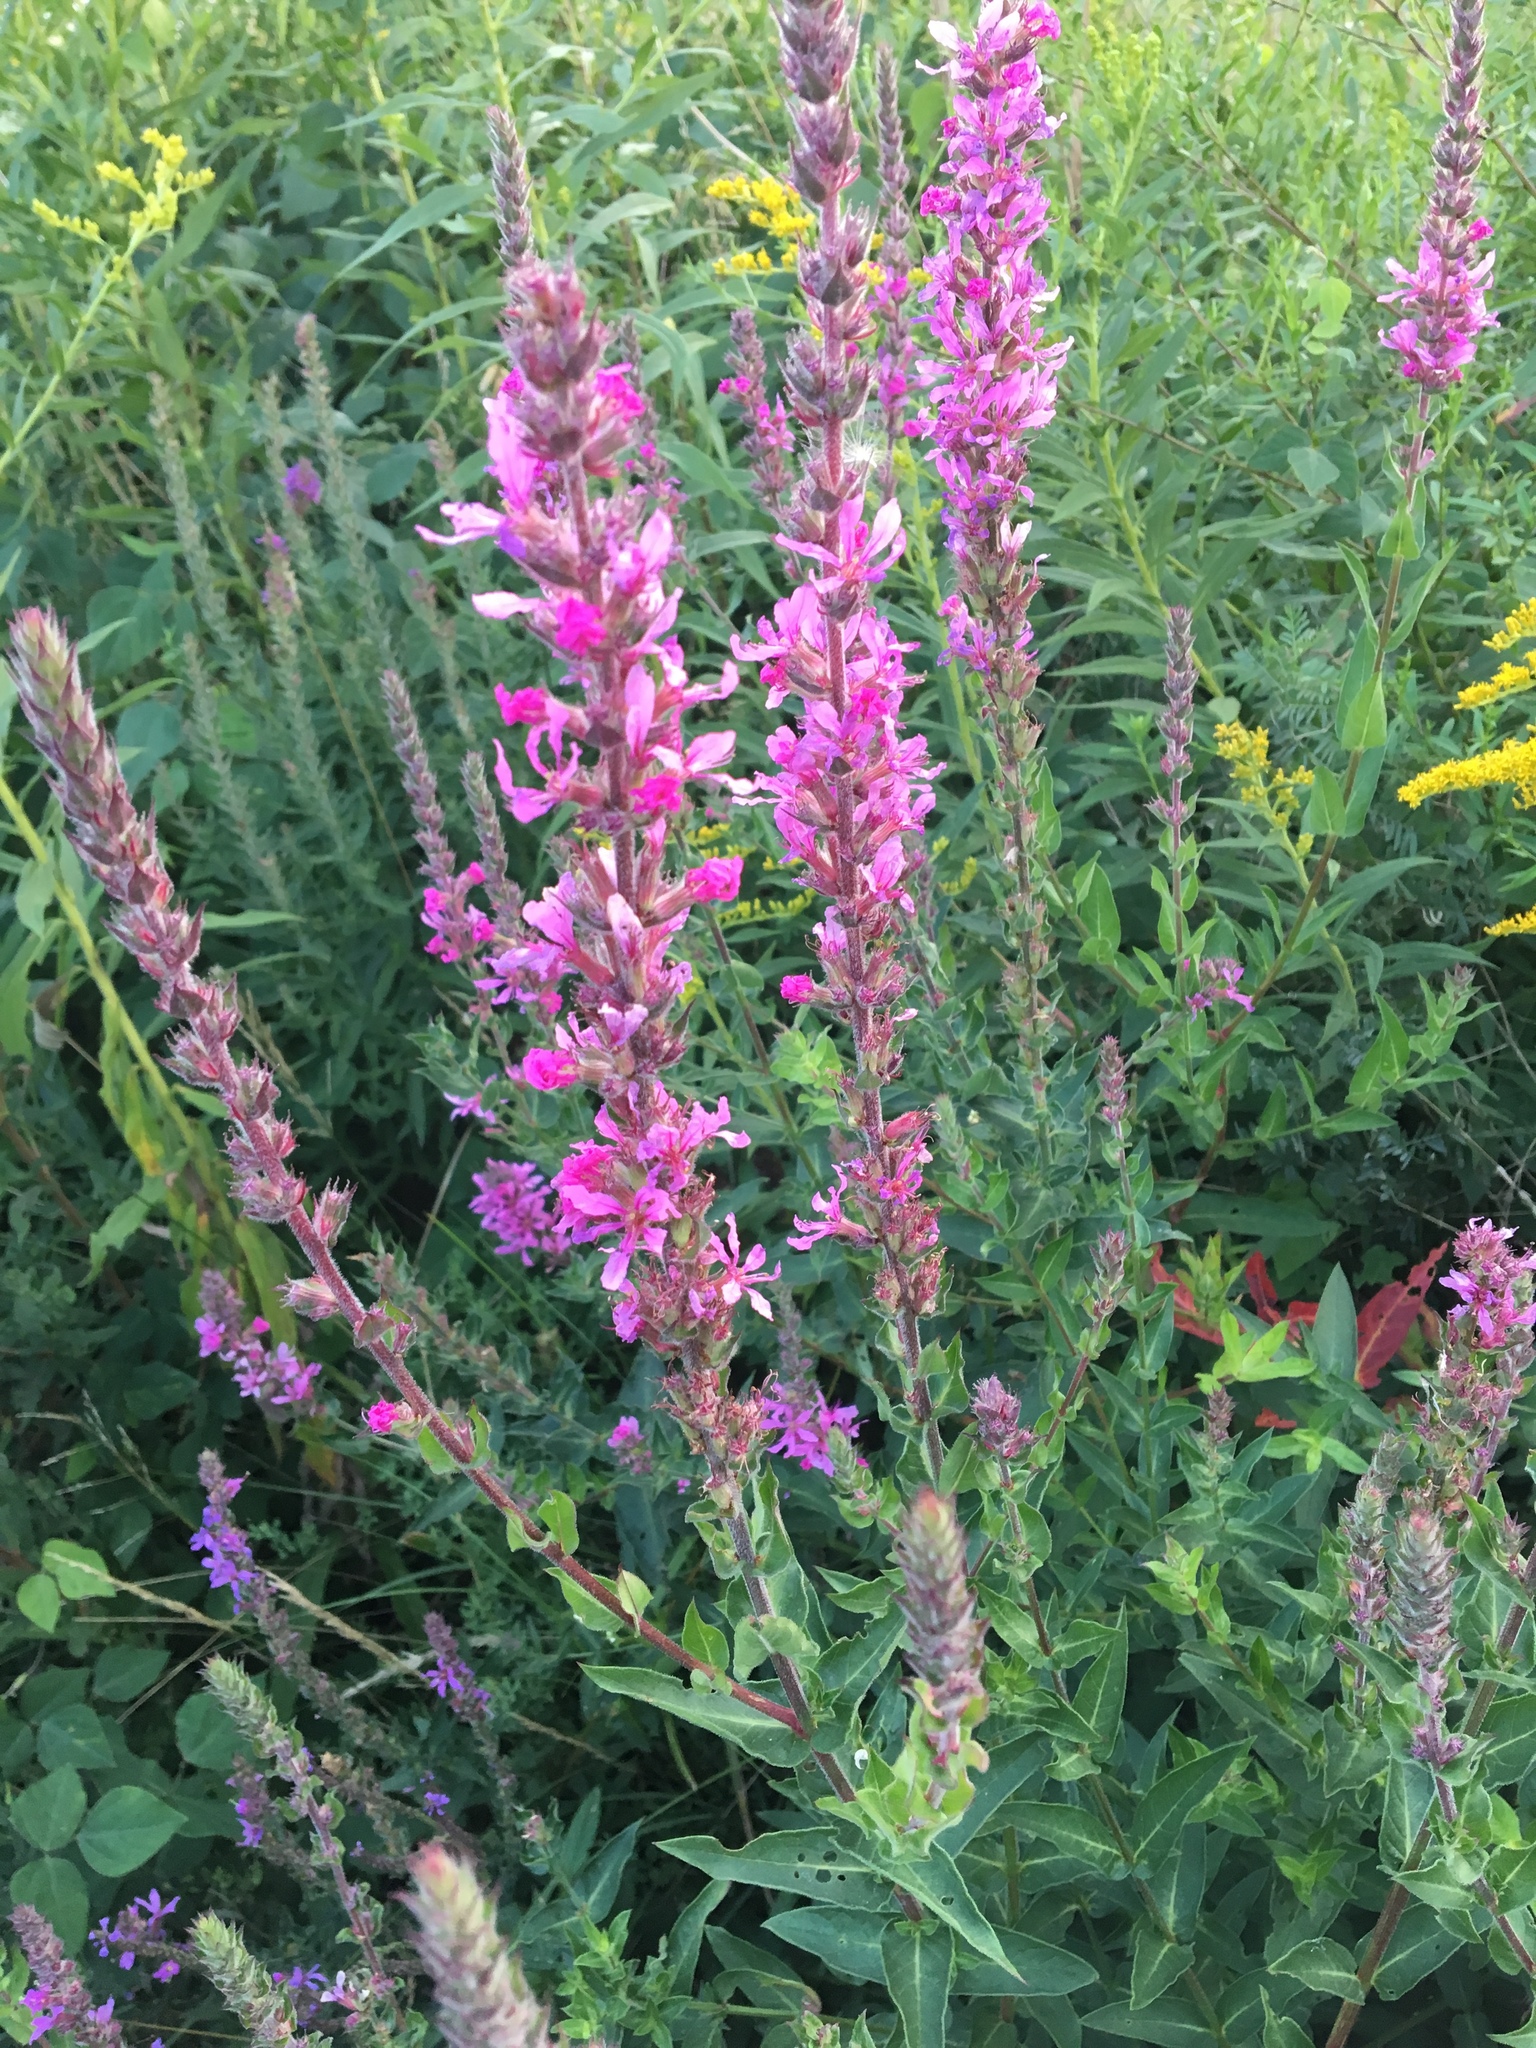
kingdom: Plantae
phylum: Tracheophyta
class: Magnoliopsida
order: Myrtales
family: Lythraceae
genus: Lythrum
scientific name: Lythrum salicaria
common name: Purple loosestrife
